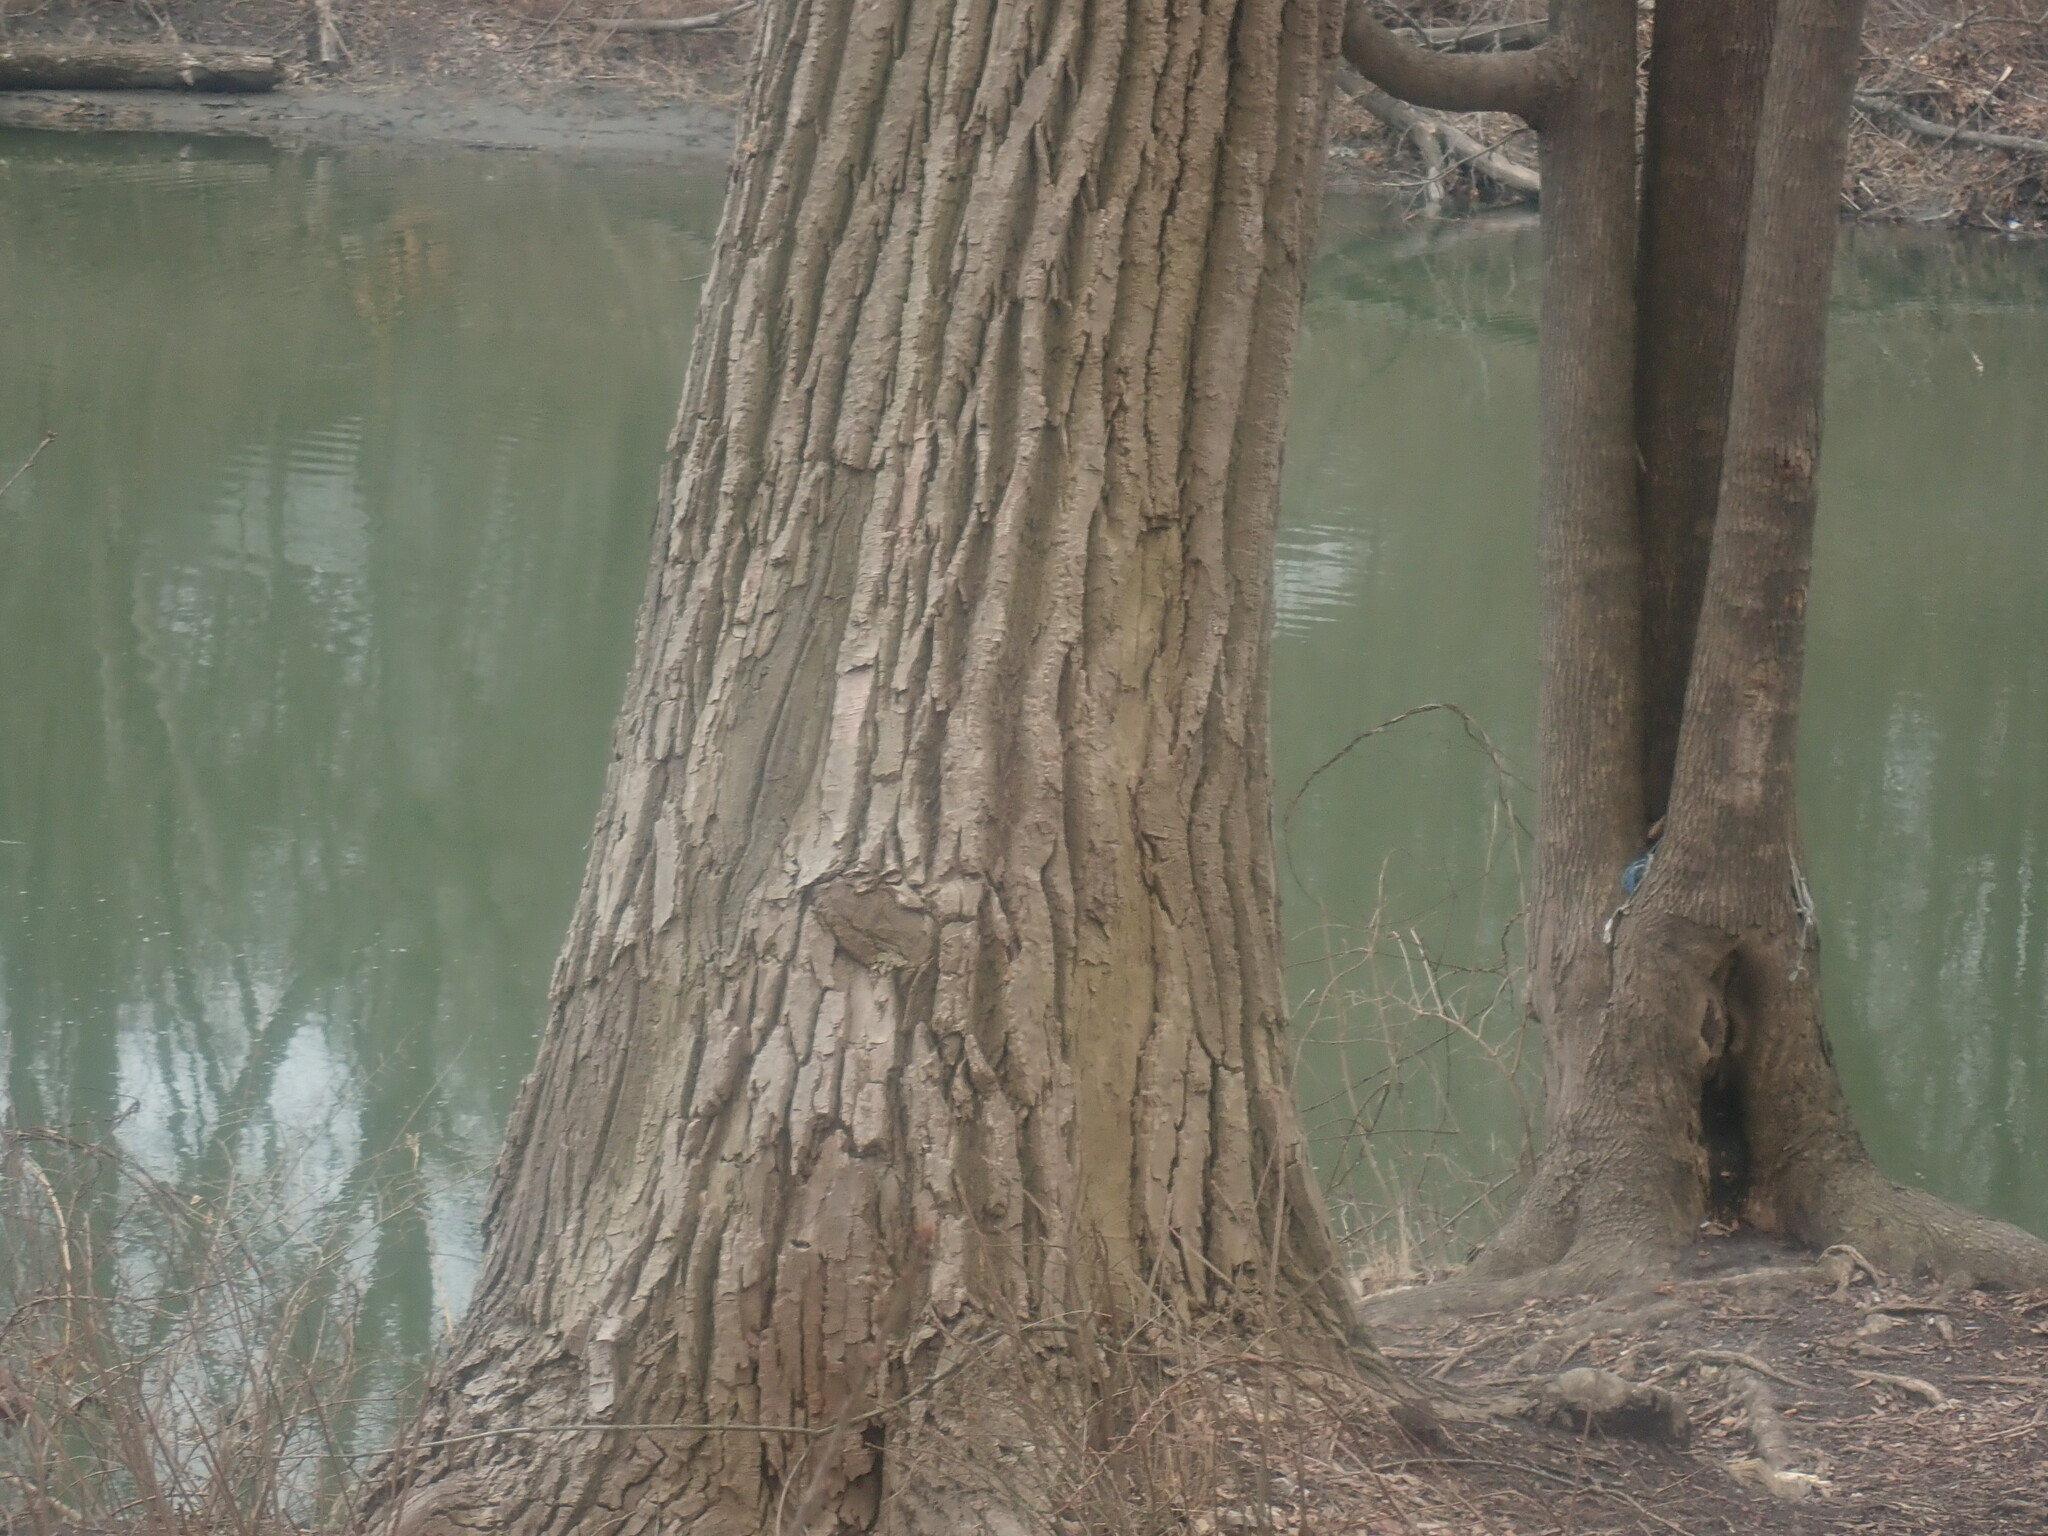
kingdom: Plantae
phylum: Tracheophyta
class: Magnoliopsida
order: Malpighiales
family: Salicaceae
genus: Populus
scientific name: Populus deltoides
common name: Eastern cottonwood
